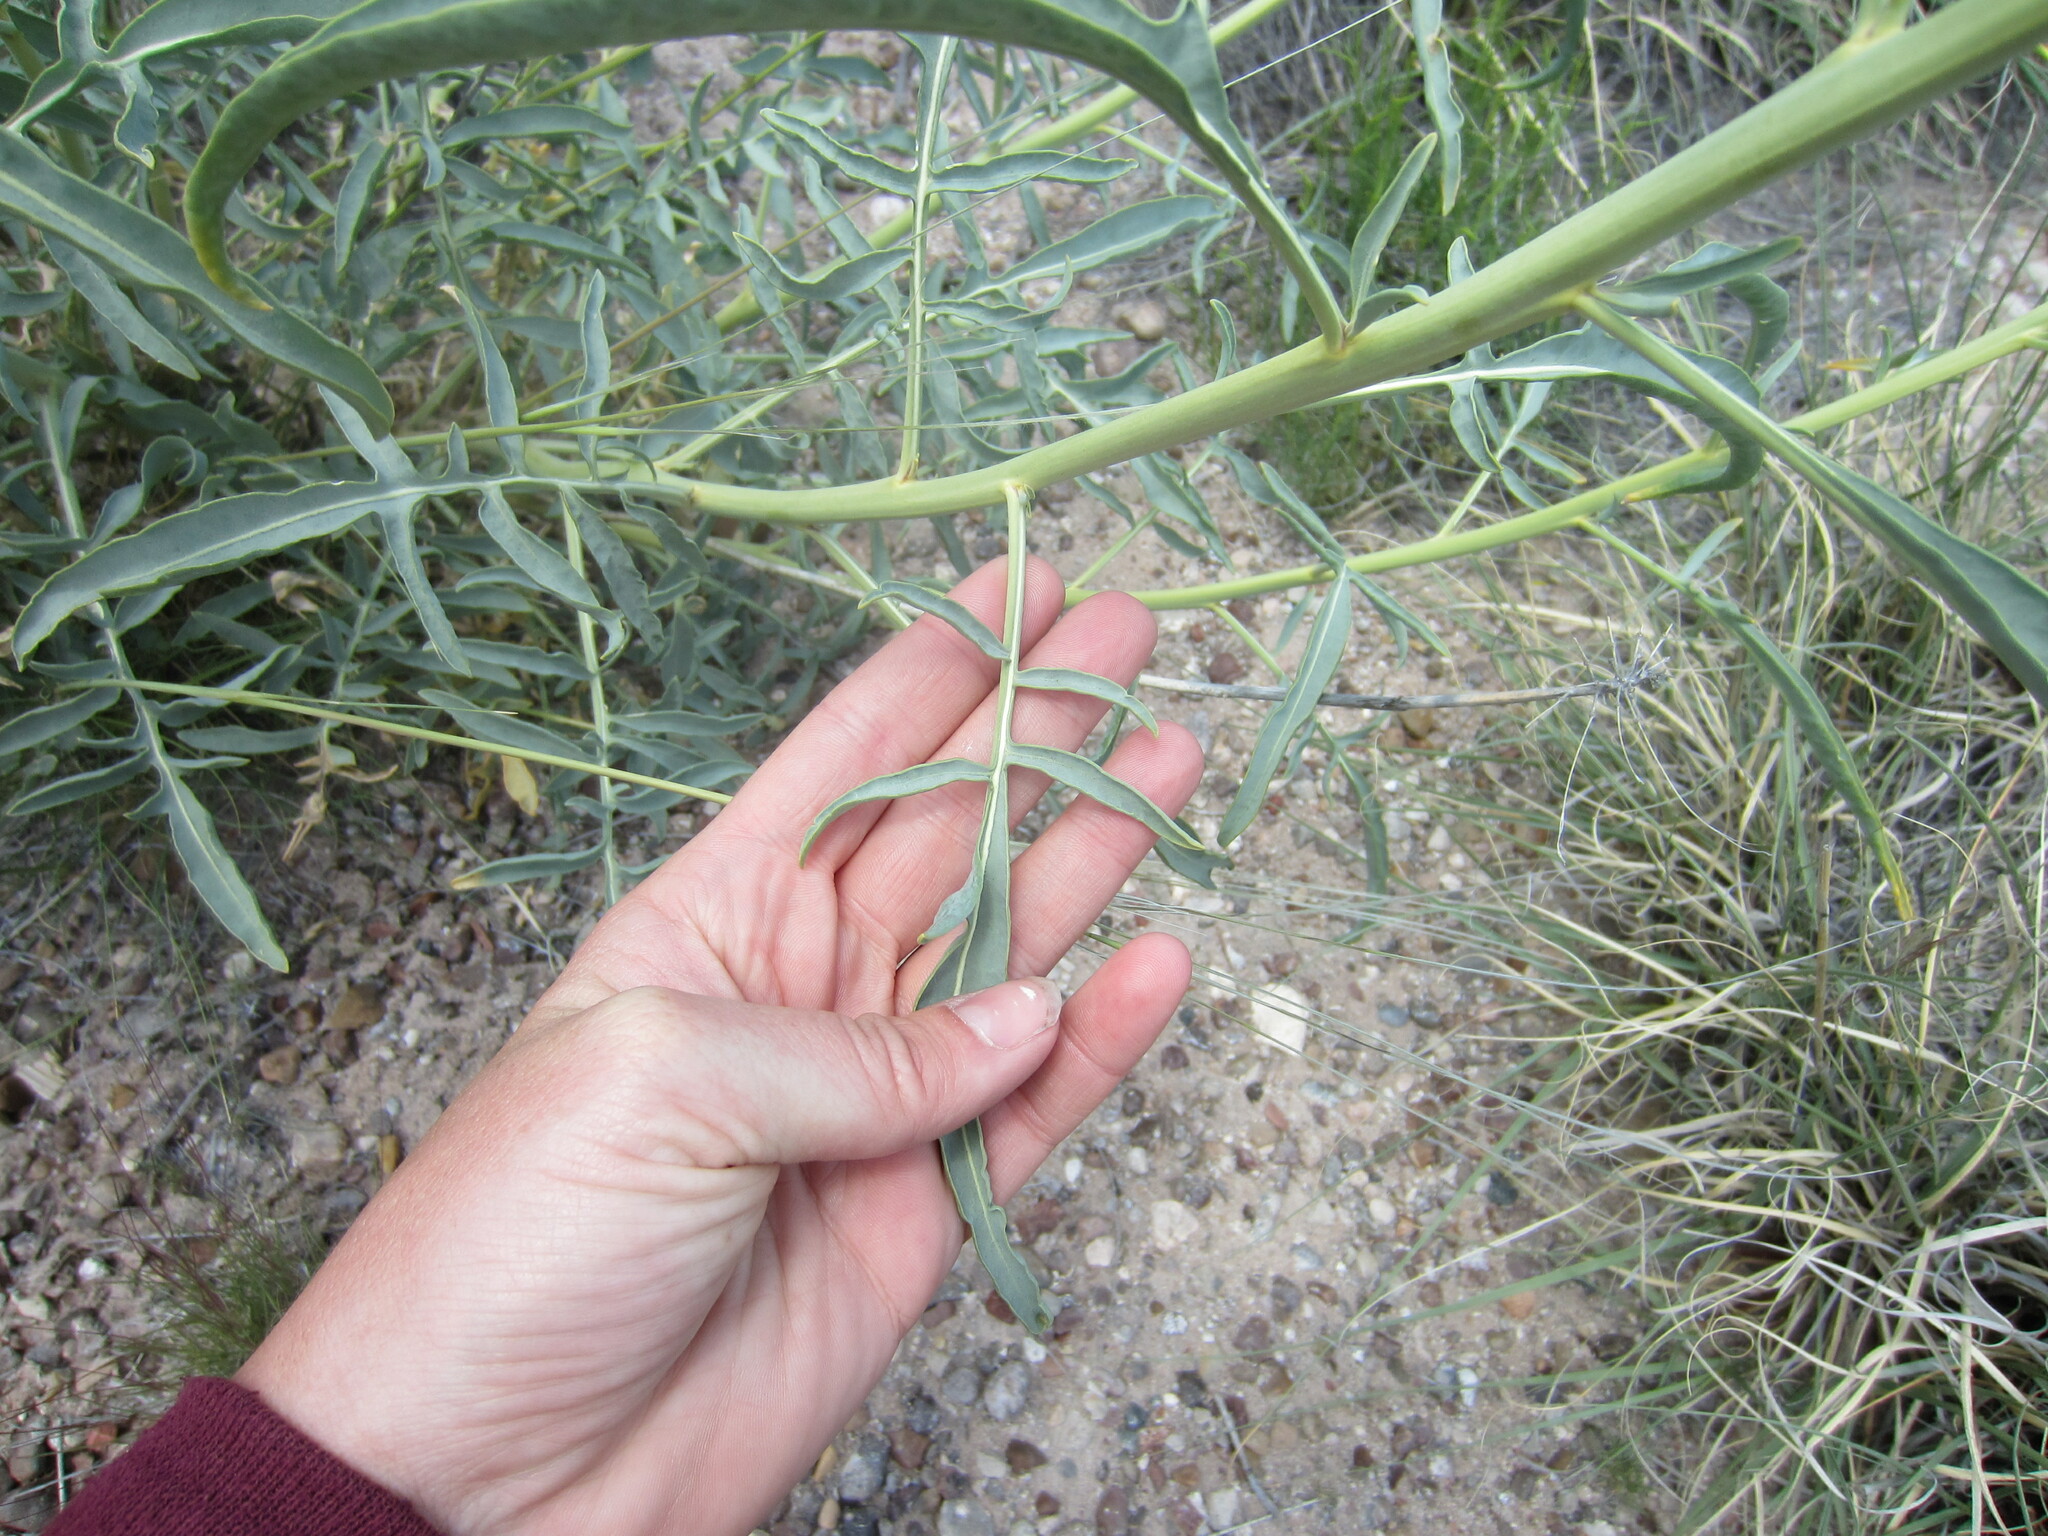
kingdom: Plantae
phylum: Tracheophyta
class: Magnoliopsida
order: Brassicales
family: Brassicaceae
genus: Stanleya
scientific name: Stanleya pinnata
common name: Prince's-plume
